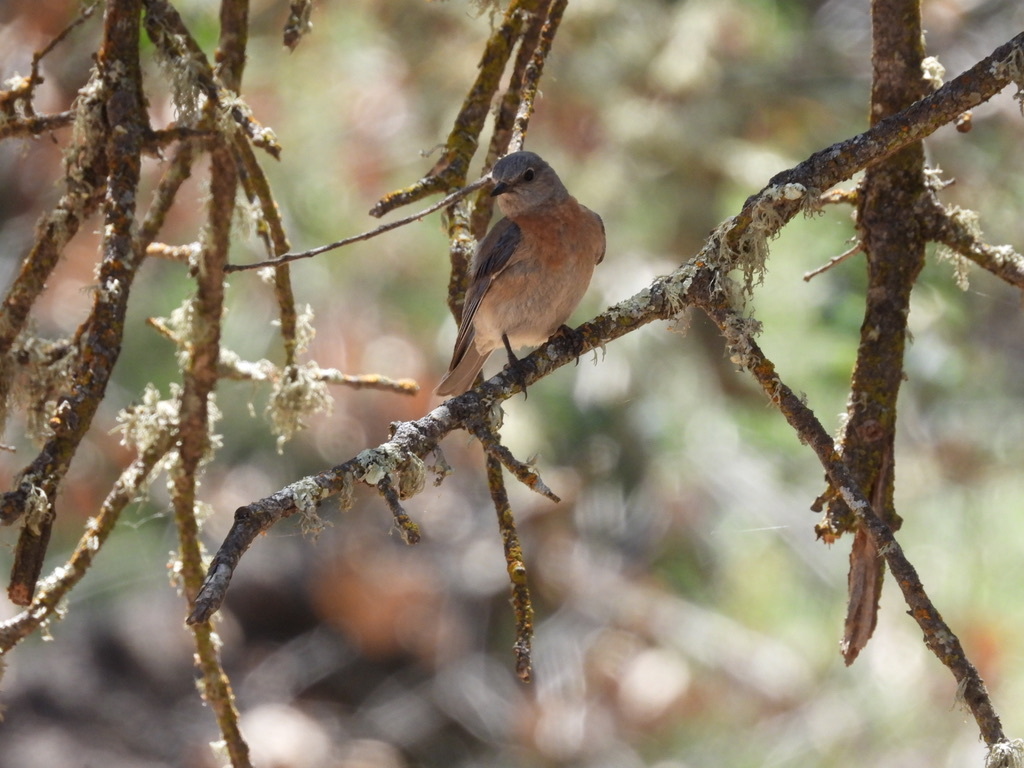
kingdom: Animalia
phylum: Chordata
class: Aves
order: Passeriformes
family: Turdidae
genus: Sialia
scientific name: Sialia mexicana
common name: Western bluebird
